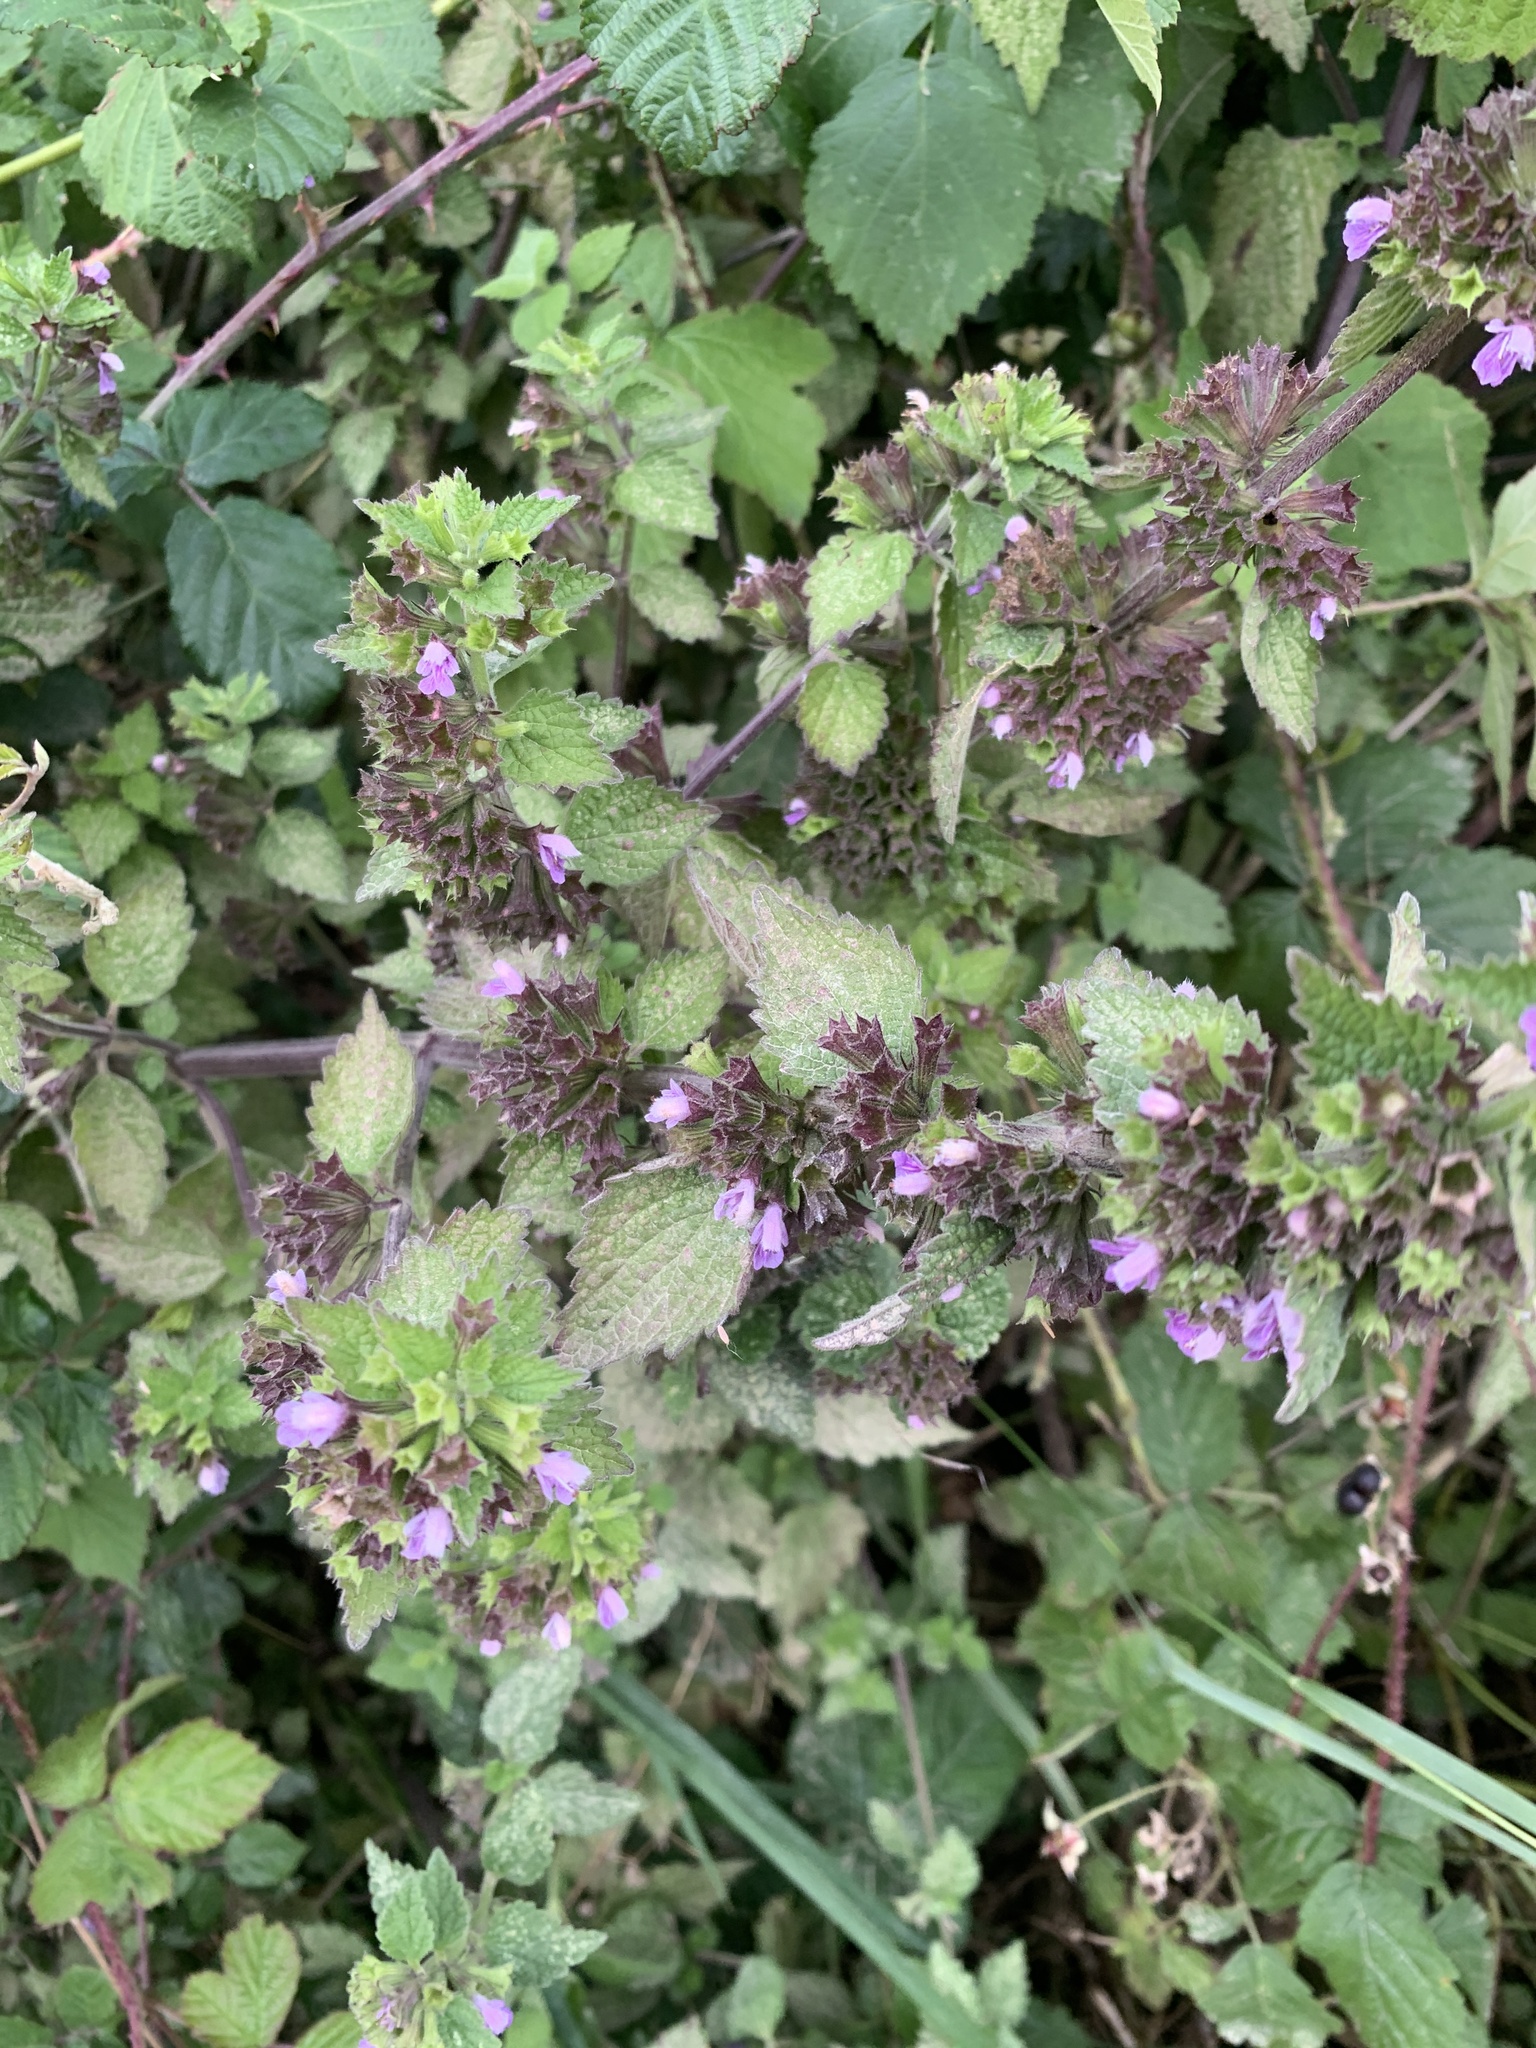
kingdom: Plantae
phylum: Tracheophyta
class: Magnoliopsida
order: Lamiales
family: Lamiaceae
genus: Ballota
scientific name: Ballota nigra
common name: Black horehound
